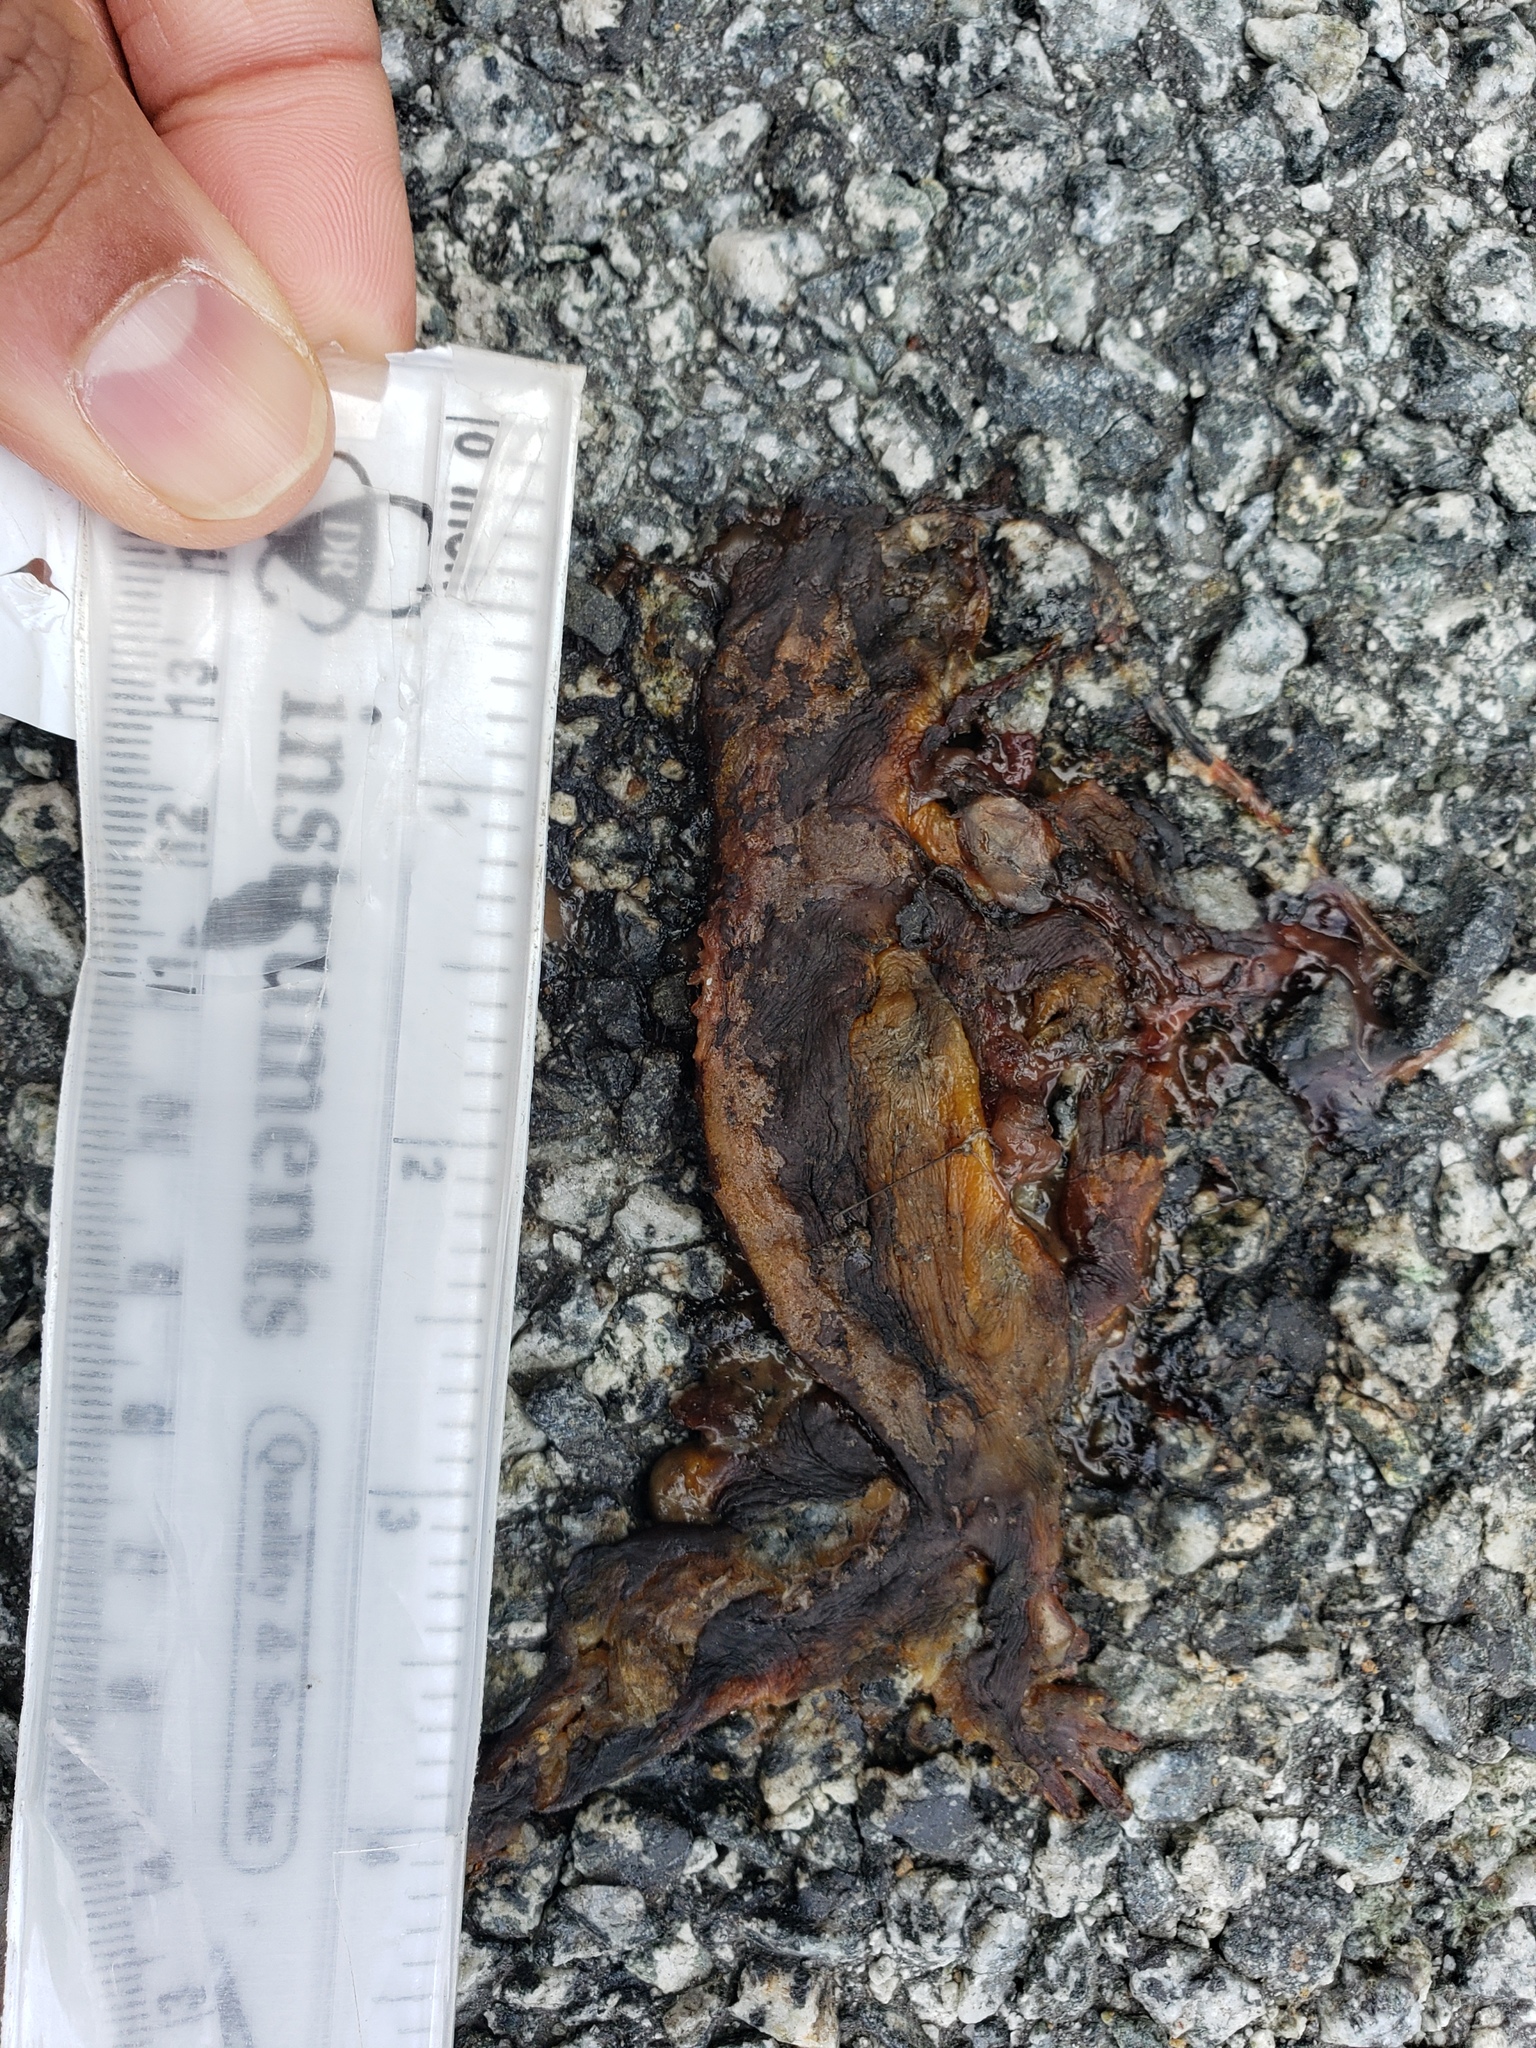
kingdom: Animalia
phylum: Chordata
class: Amphibia
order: Caudata
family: Salamandridae
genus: Taricha
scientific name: Taricha
